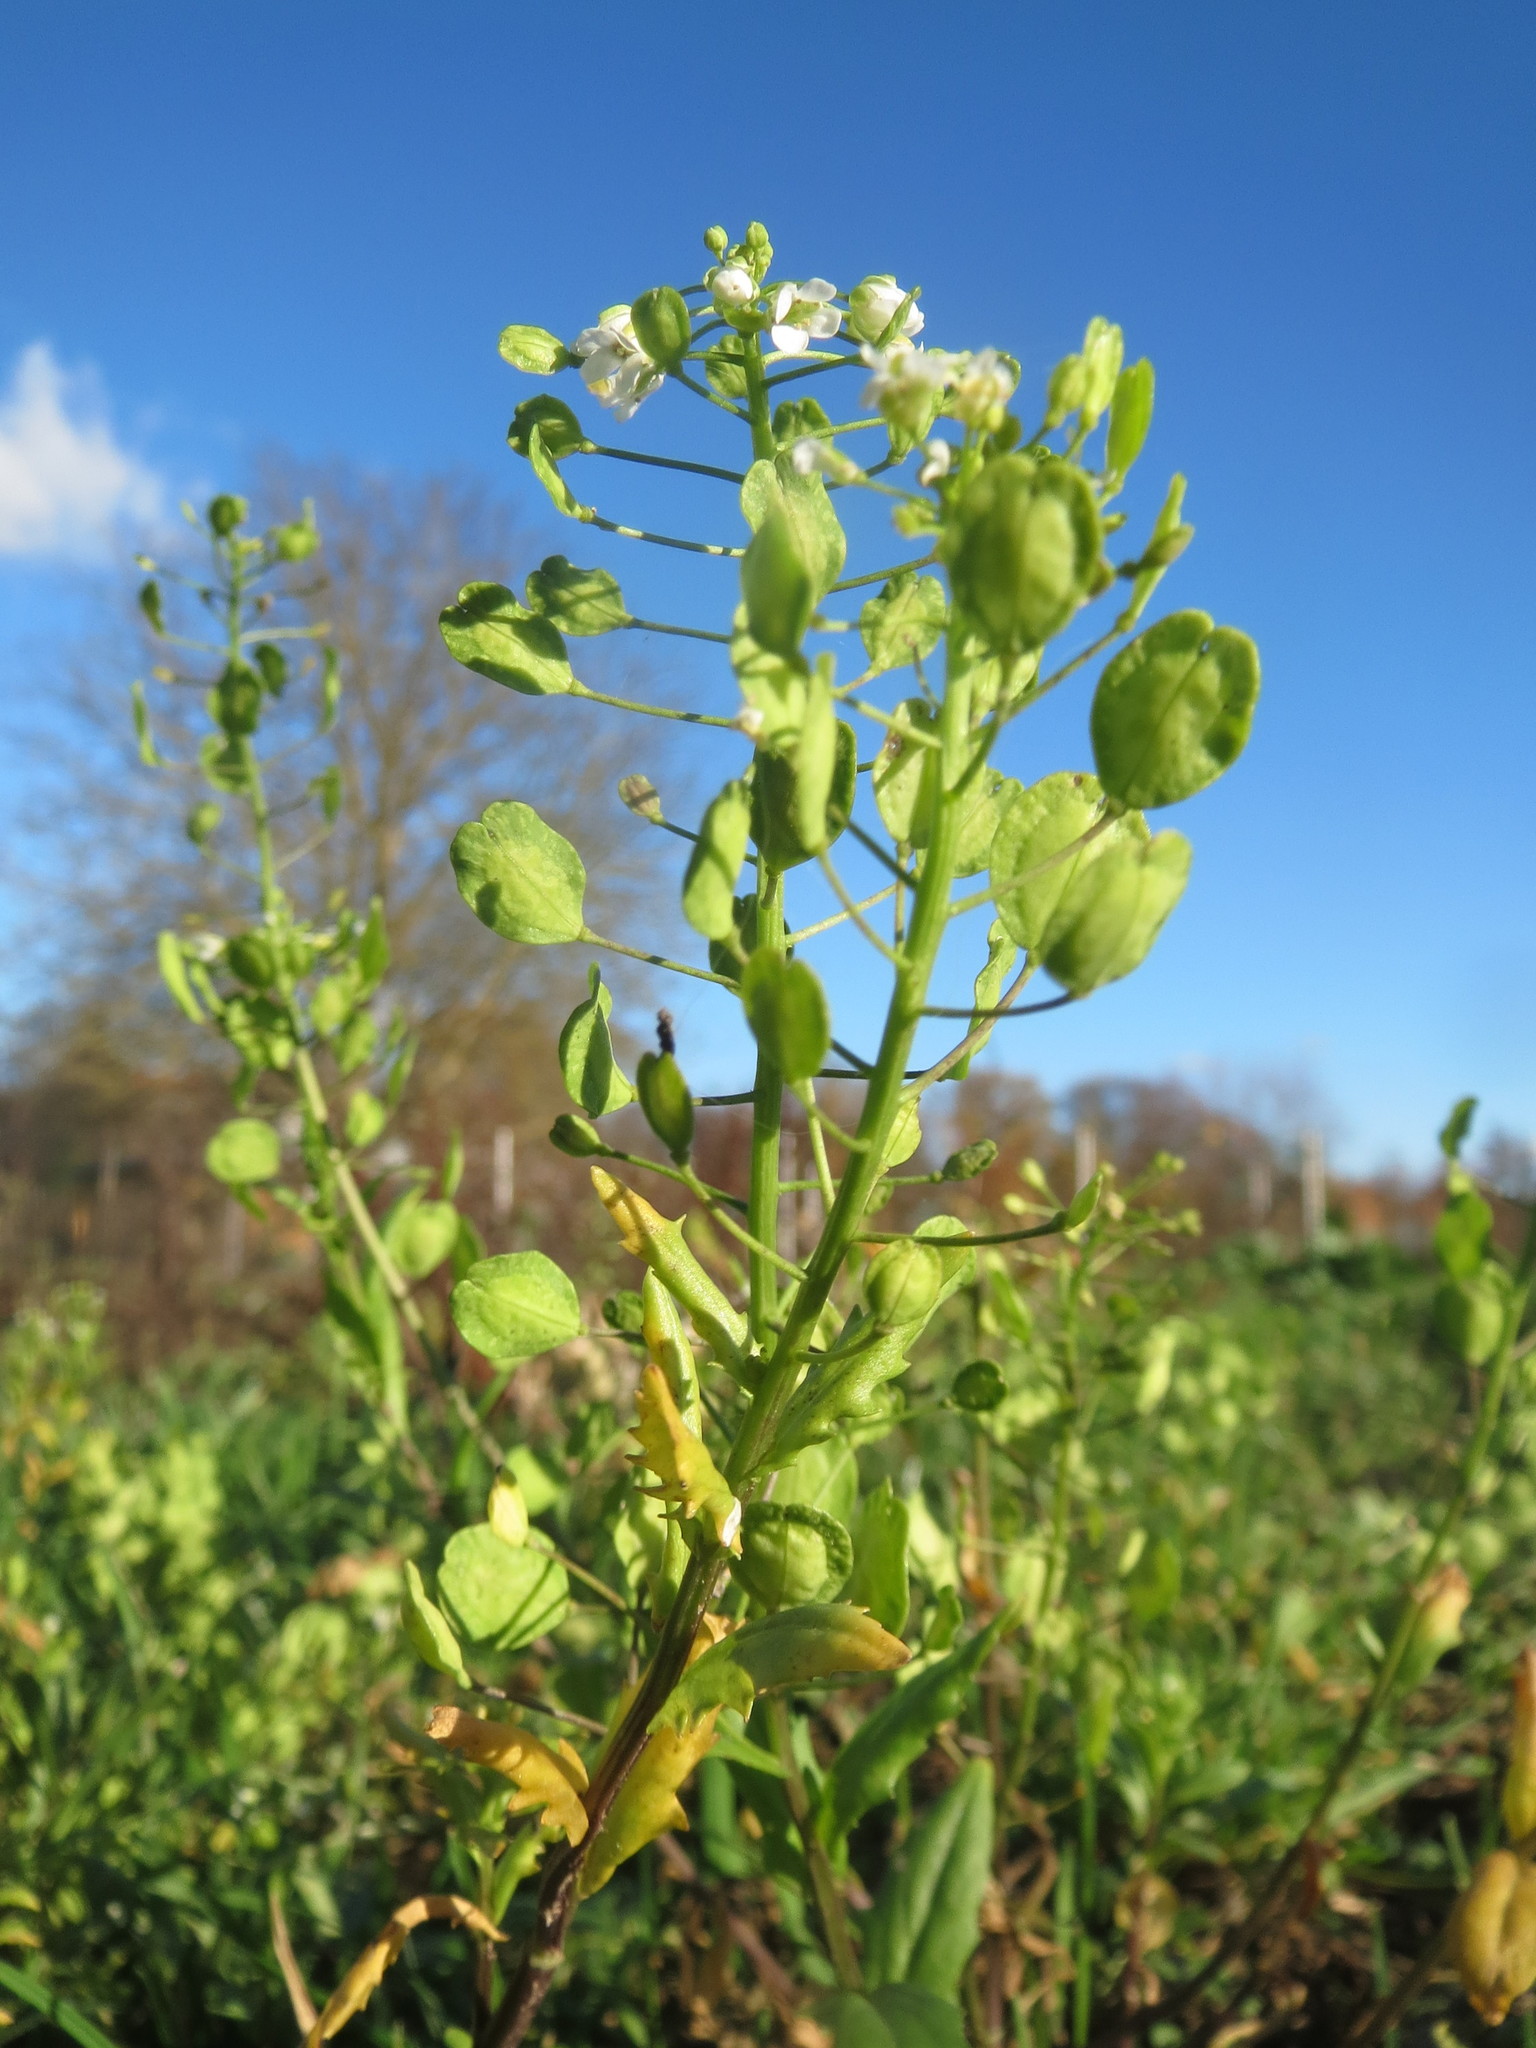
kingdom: Plantae
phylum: Tracheophyta
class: Magnoliopsida
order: Brassicales
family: Brassicaceae
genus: Thlaspi
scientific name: Thlaspi arvense
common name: Field pennycress
